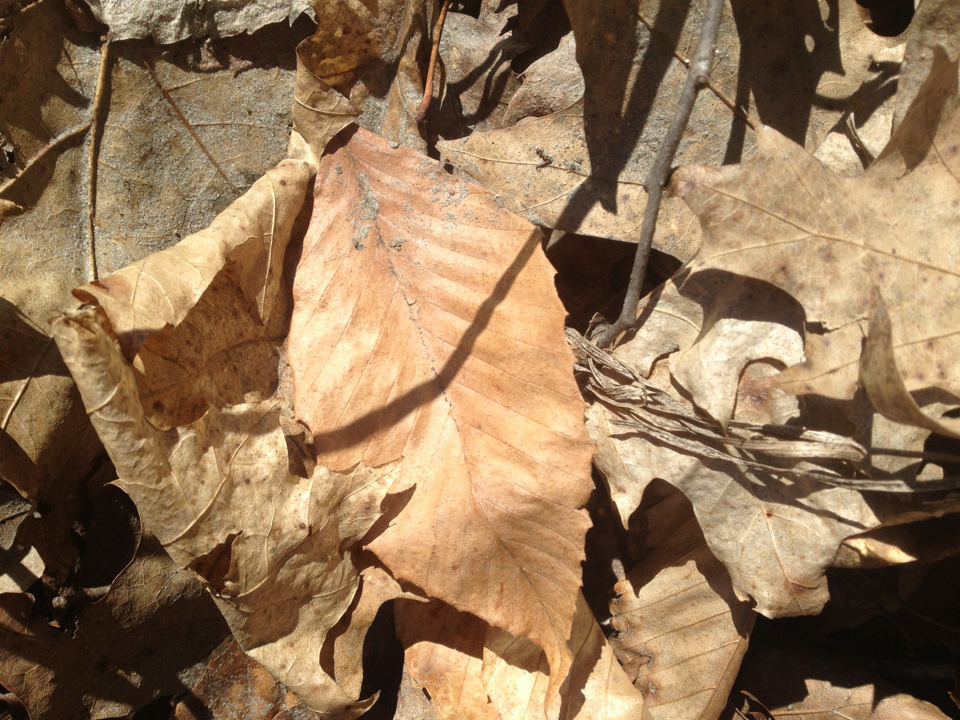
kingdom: Plantae
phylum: Tracheophyta
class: Magnoliopsida
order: Fagales
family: Fagaceae
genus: Fagus
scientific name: Fagus grandifolia
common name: American beech
